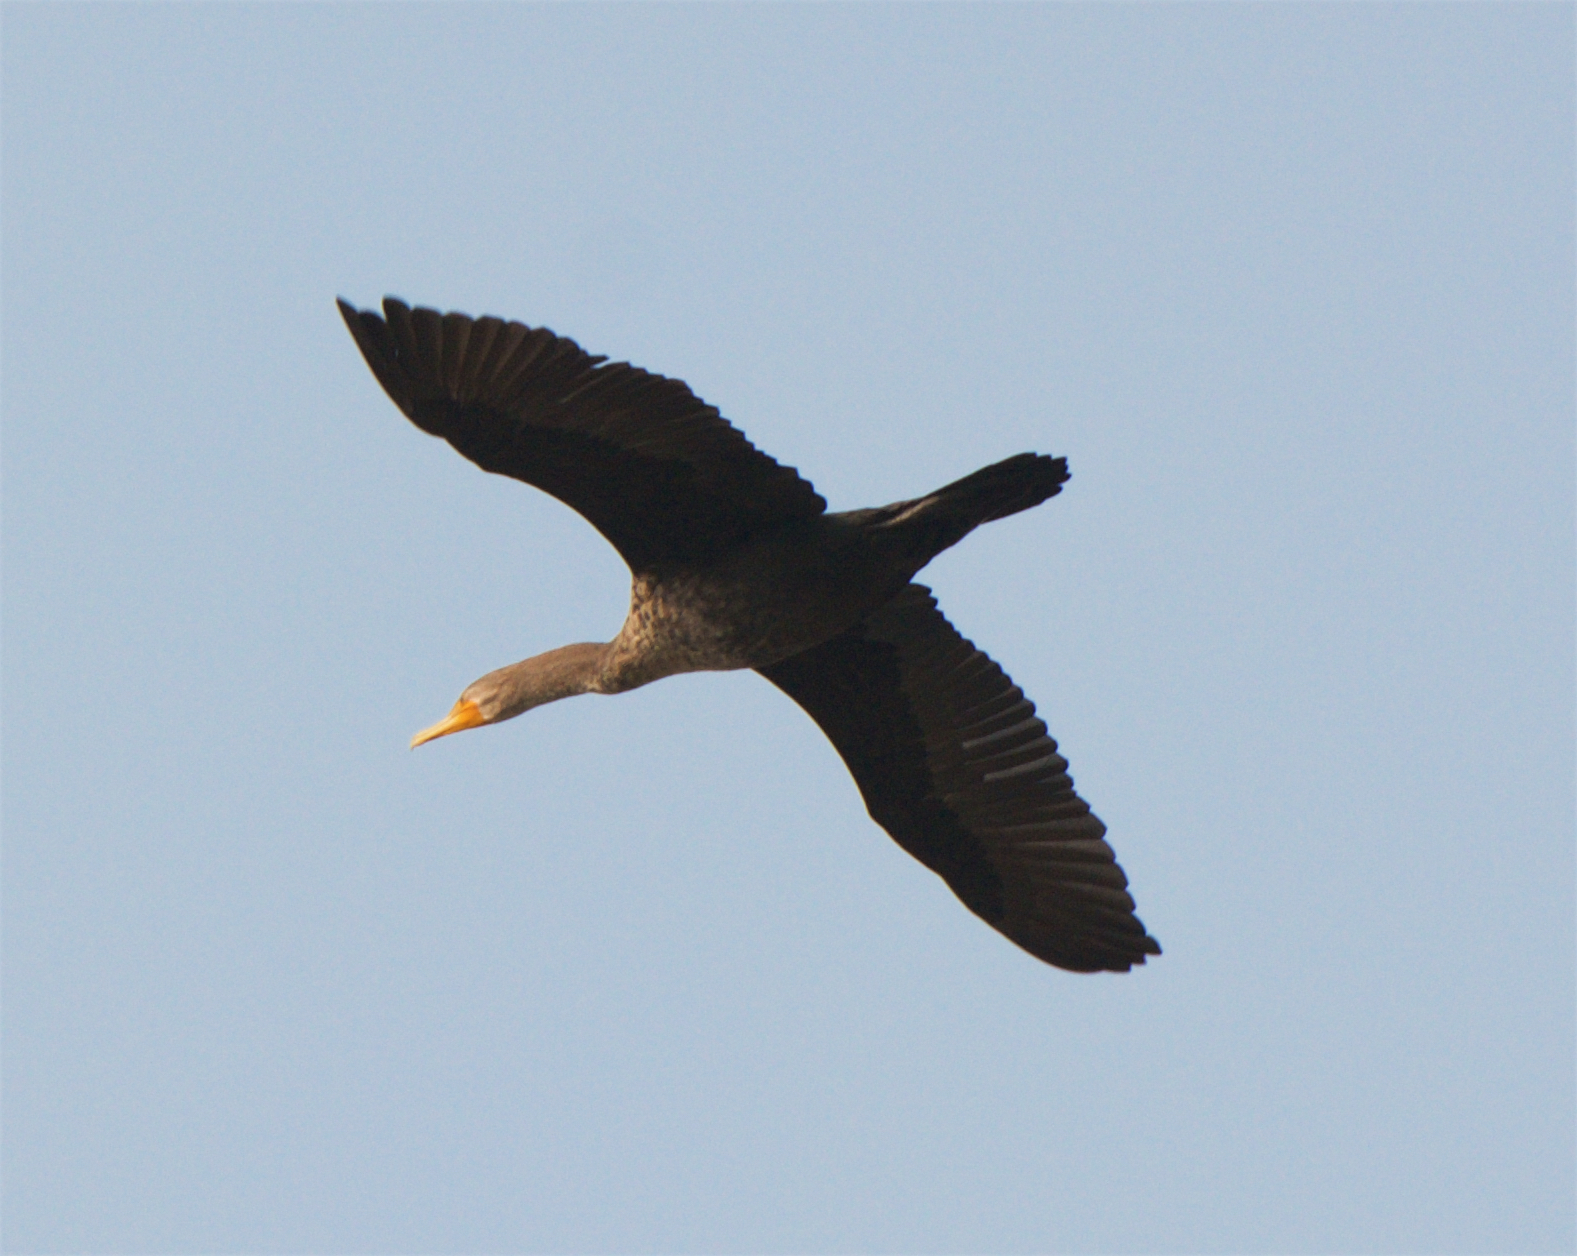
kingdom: Animalia
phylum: Chordata
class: Aves
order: Suliformes
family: Phalacrocoracidae
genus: Phalacrocorax
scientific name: Phalacrocorax auritus
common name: Double-crested cormorant
